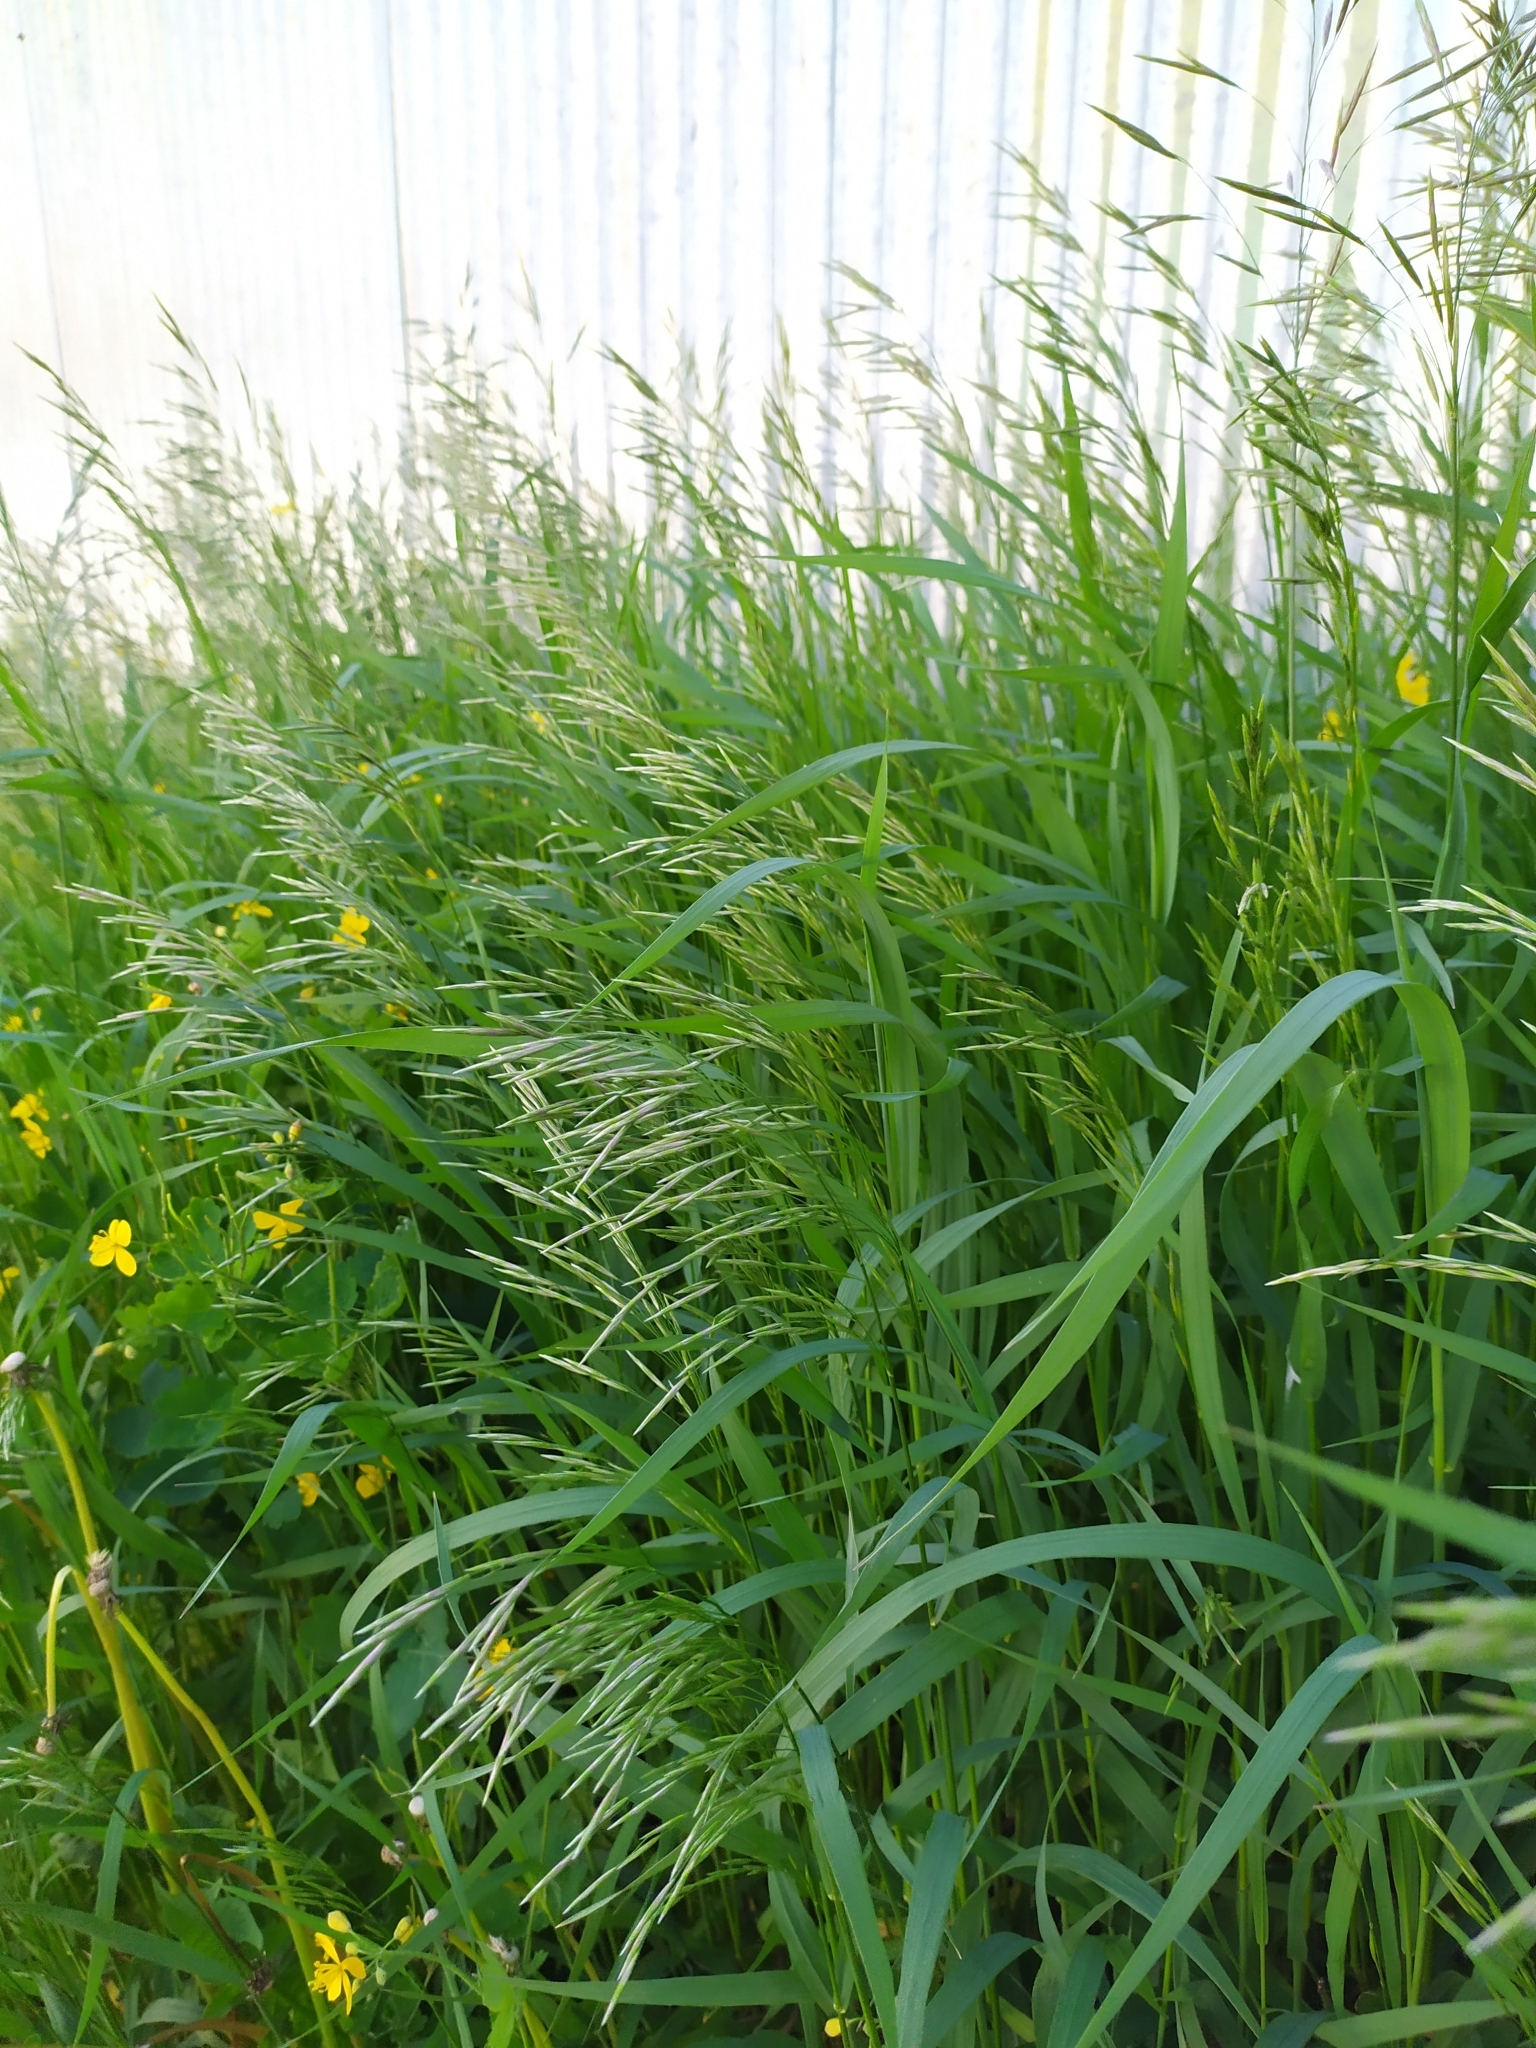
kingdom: Plantae
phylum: Tracheophyta
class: Liliopsida
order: Poales
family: Poaceae
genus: Bromus
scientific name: Bromus inermis
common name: Smooth brome
